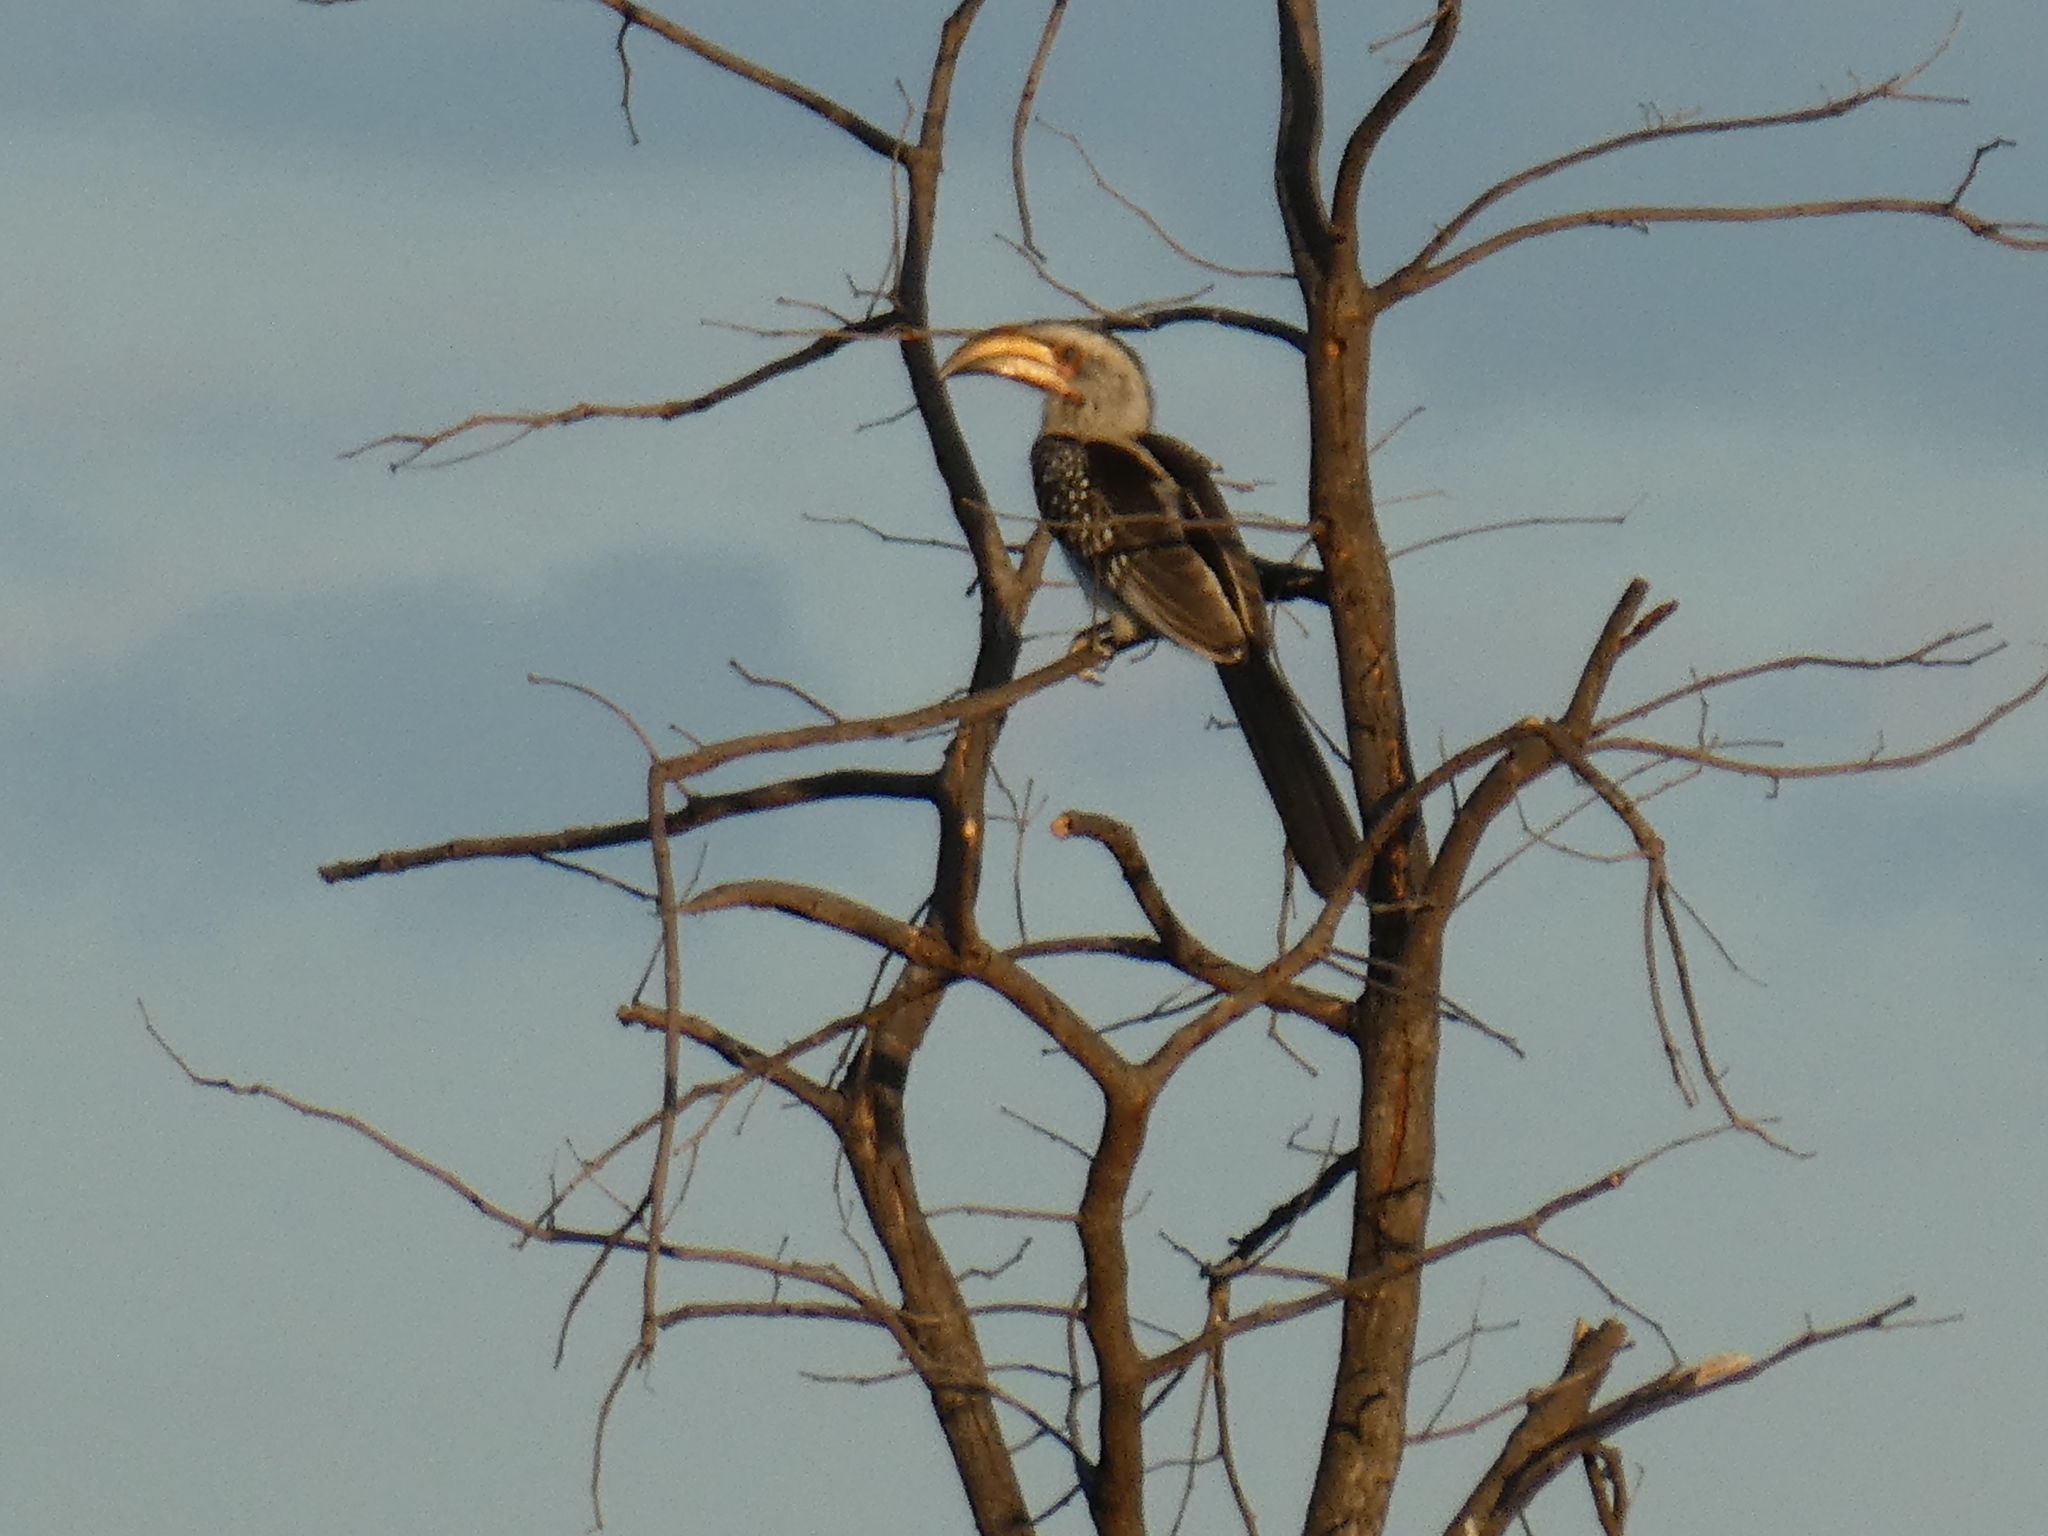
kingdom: Animalia
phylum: Chordata
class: Aves
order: Bucerotiformes
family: Bucerotidae
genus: Tockus
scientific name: Tockus leucomelas
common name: Southern yellow-billed hornbill
